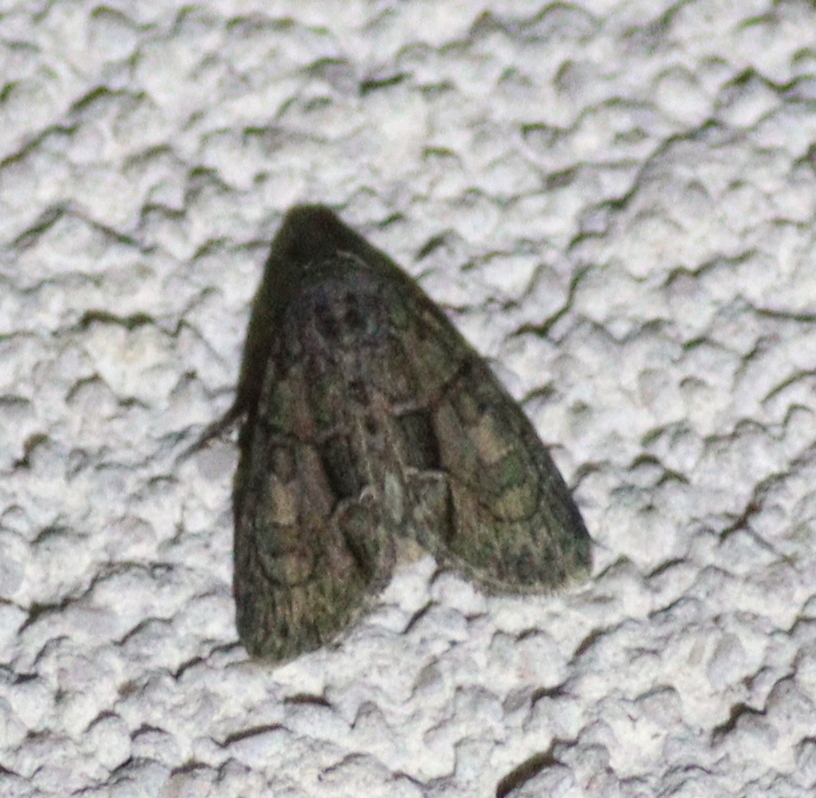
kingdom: Animalia
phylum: Arthropoda
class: Insecta
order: Lepidoptera
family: Noctuidae
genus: Cryphia
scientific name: Cryphia fraudatricula
